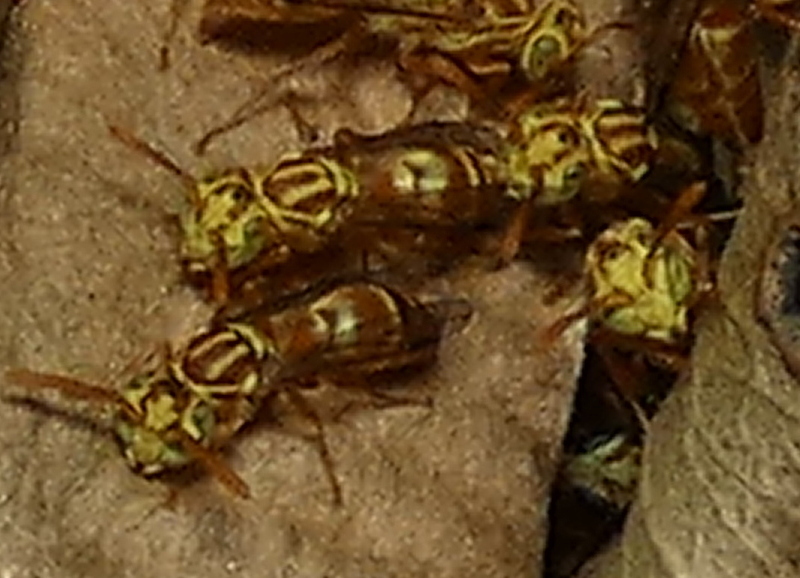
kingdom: Animalia
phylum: Arthropoda
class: Insecta
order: Hymenoptera
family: Vespidae
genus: Protopolybia
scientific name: Protopolybia potiguara
